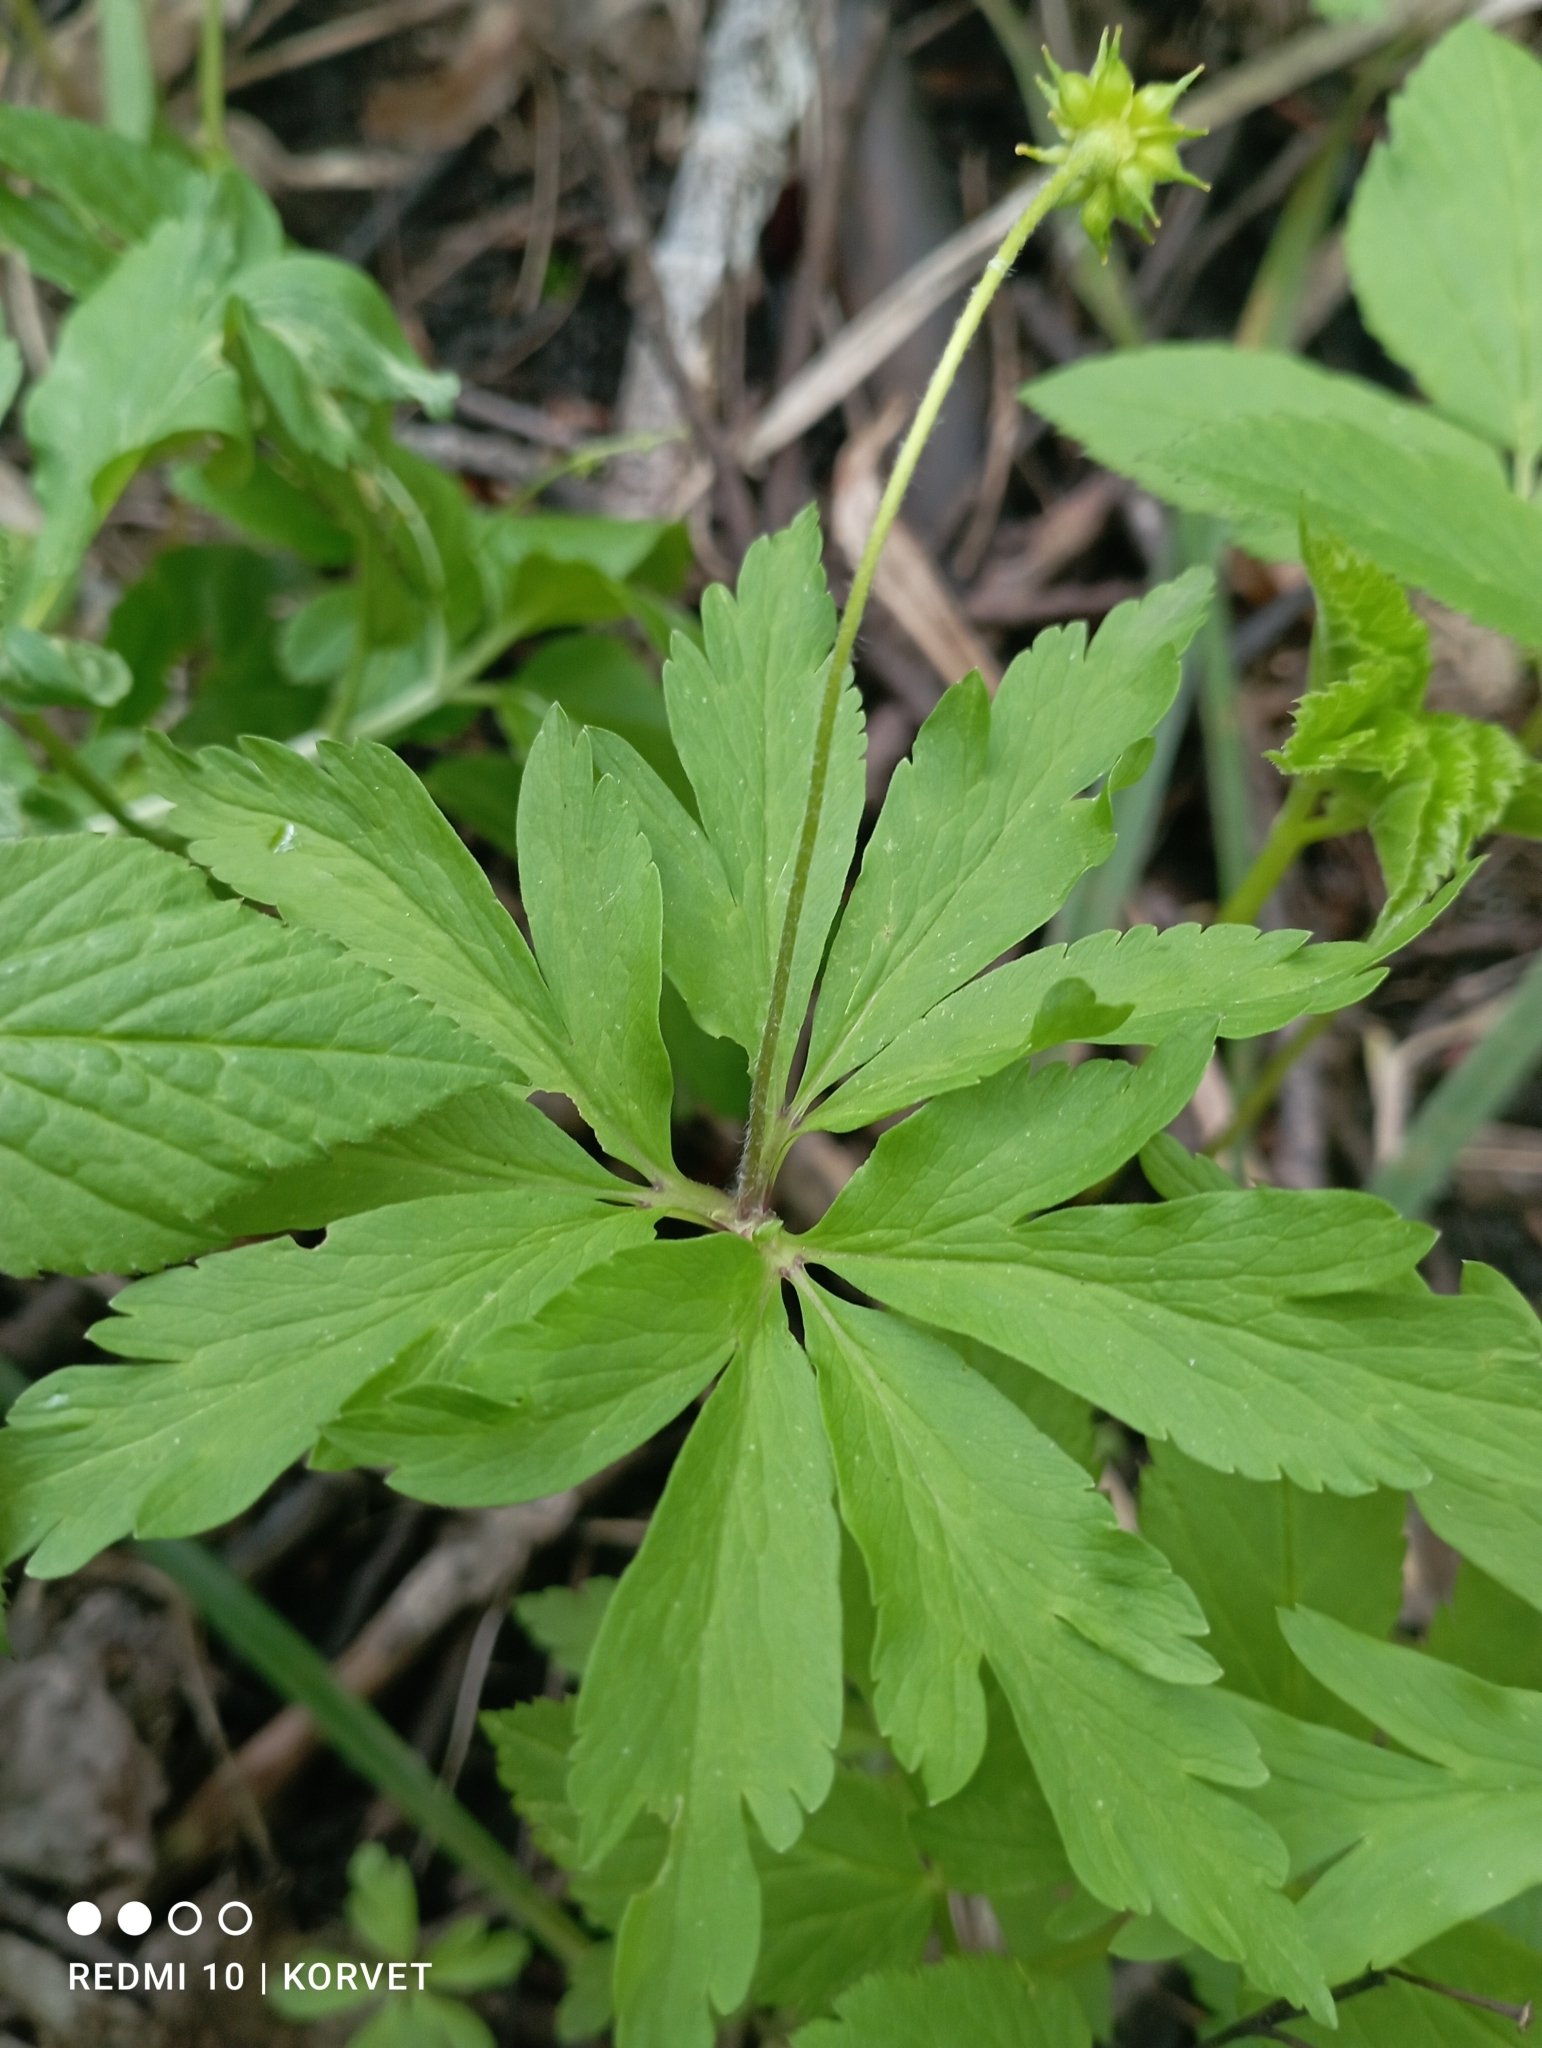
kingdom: Plantae
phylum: Tracheophyta
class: Magnoliopsida
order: Ranunculales
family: Ranunculaceae
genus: Anemone
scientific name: Anemone ranunculoides
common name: Yellow anemone
